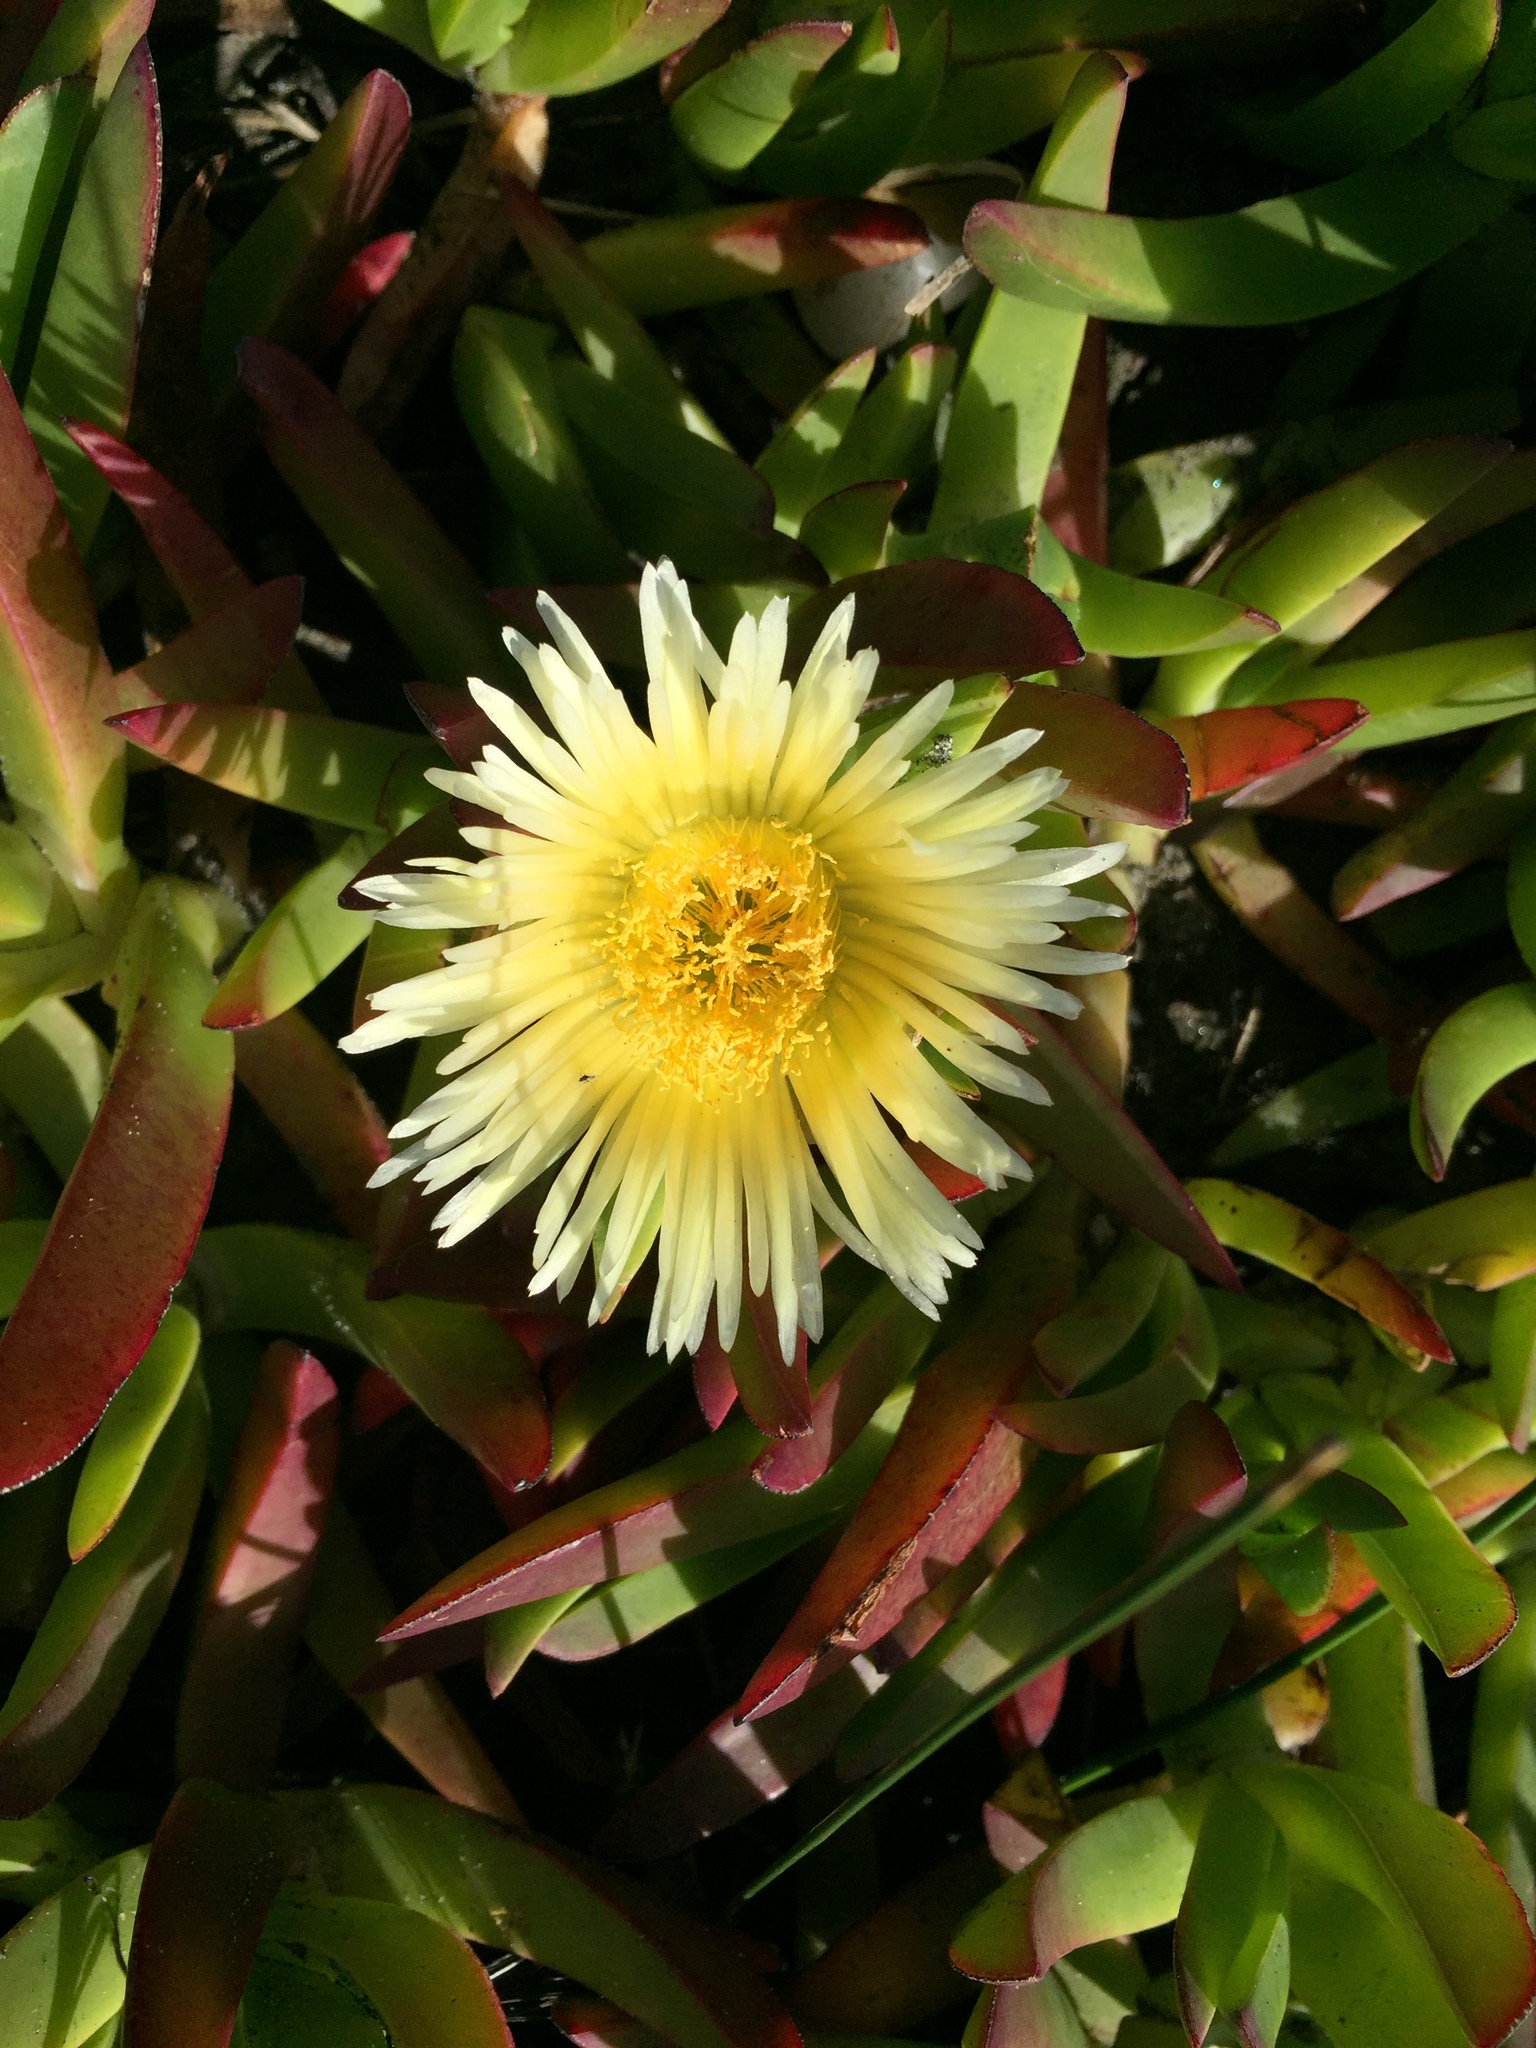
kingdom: Plantae
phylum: Tracheophyta
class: Magnoliopsida
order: Caryophyllales
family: Aizoaceae
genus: Carpobrotus
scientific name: Carpobrotus edulis
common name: Hottentot-fig
